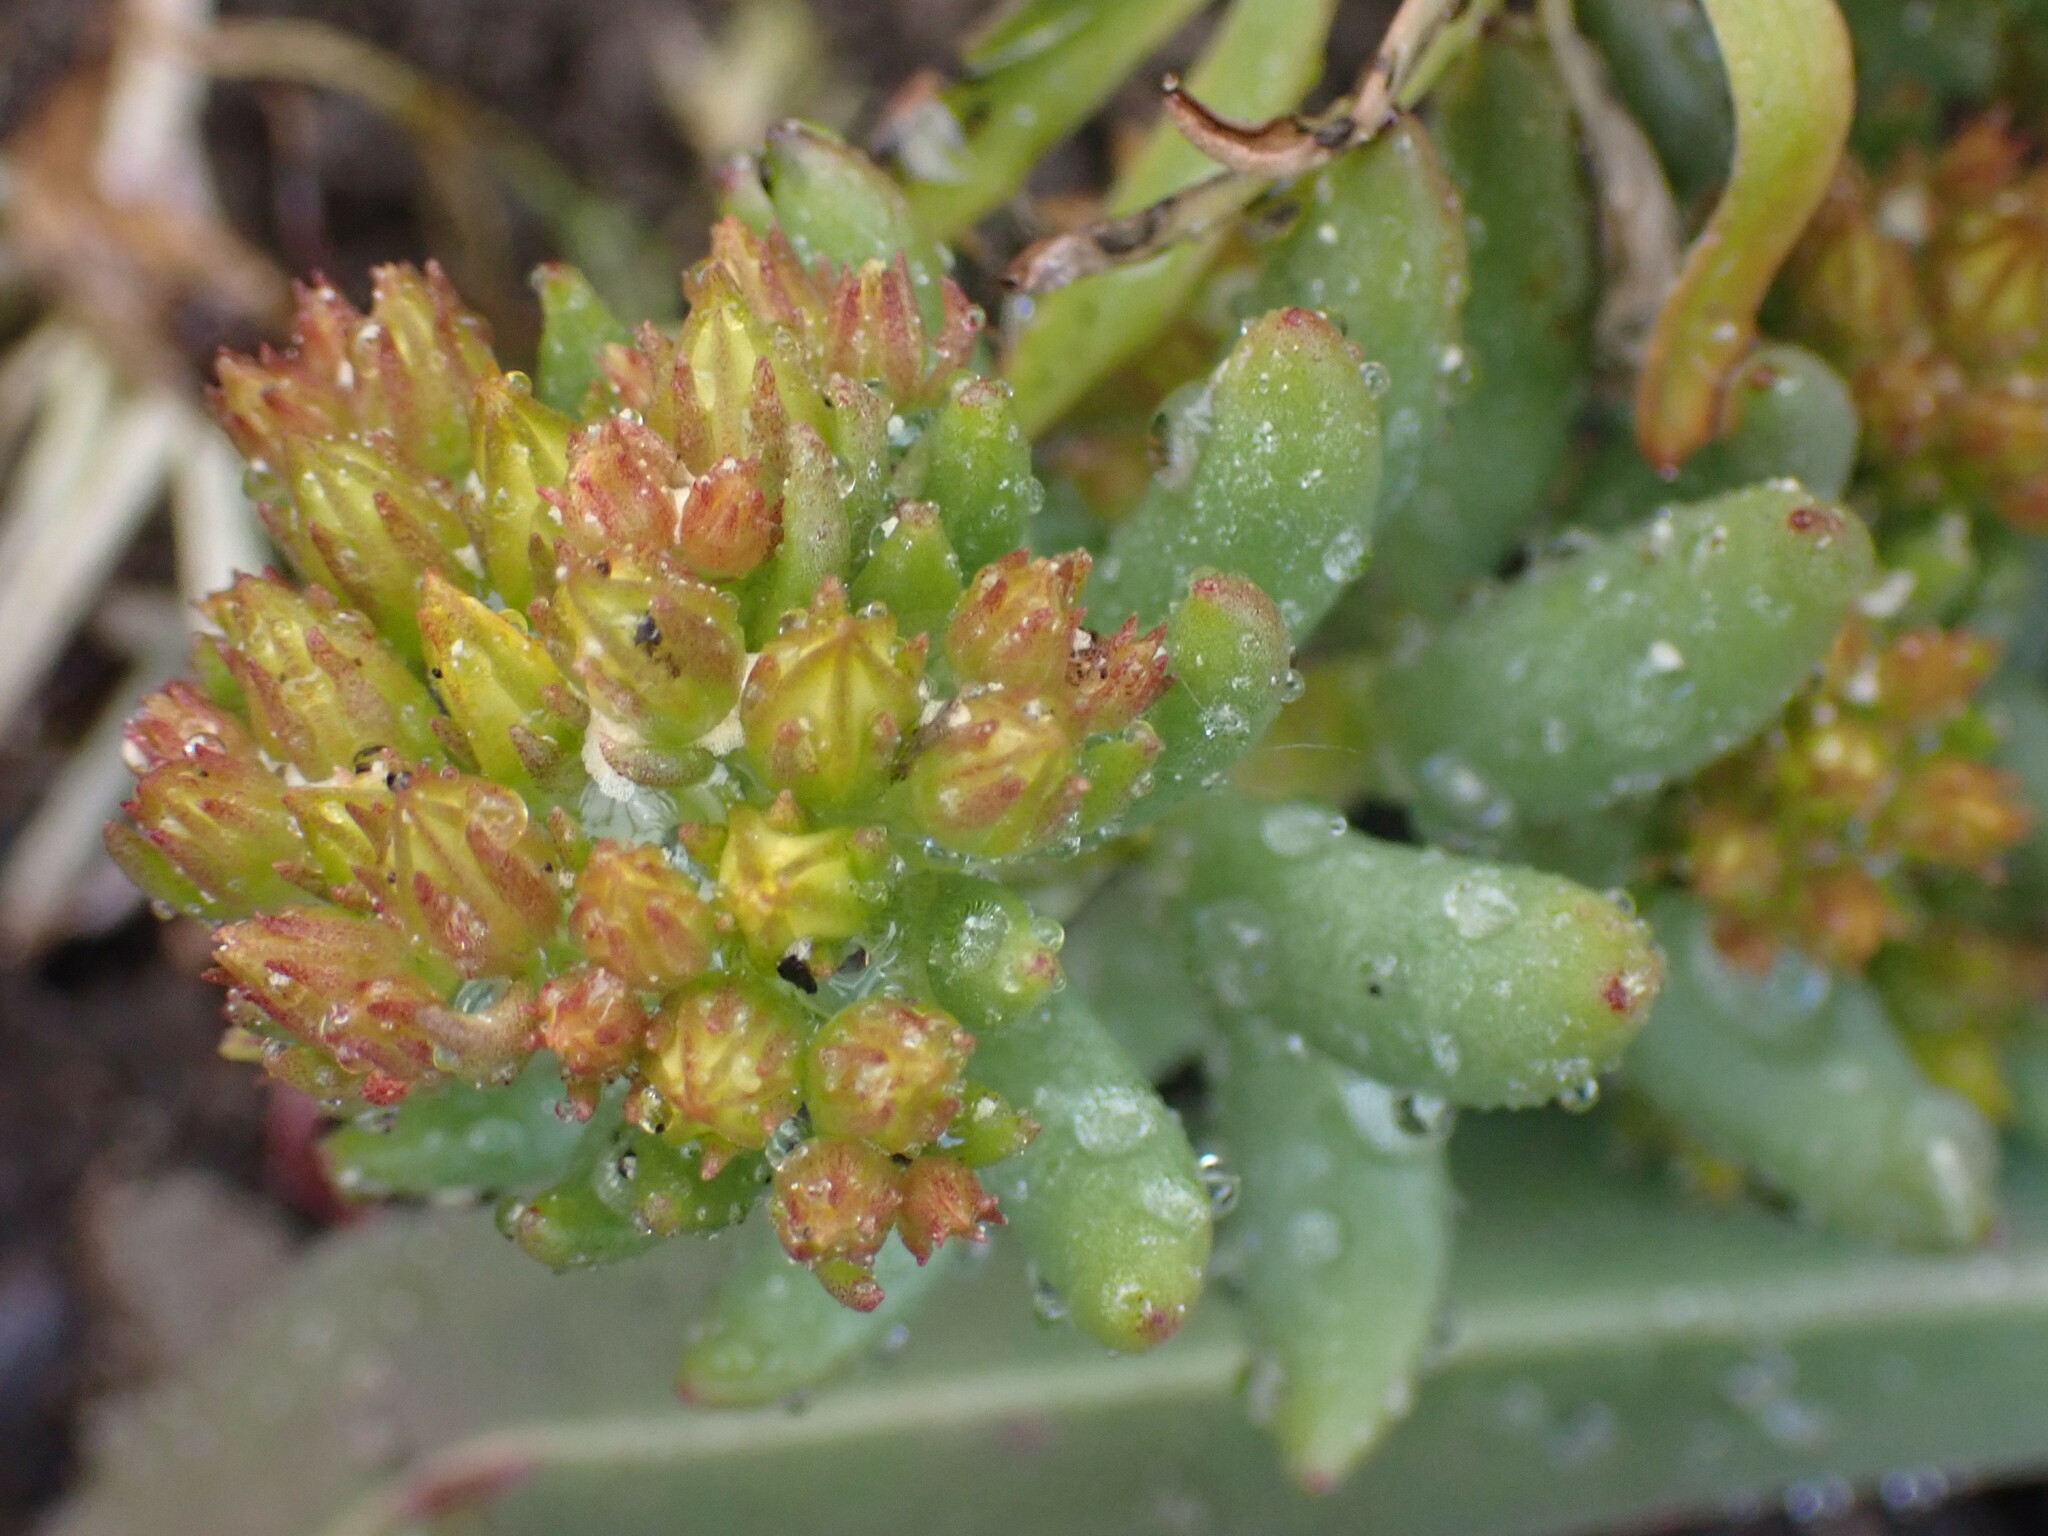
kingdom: Plantae
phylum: Tracheophyta
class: Magnoliopsida
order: Saxifragales
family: Crassulaceae
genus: Sedum
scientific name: Sedum lanceolatum
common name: Common stonecrop
